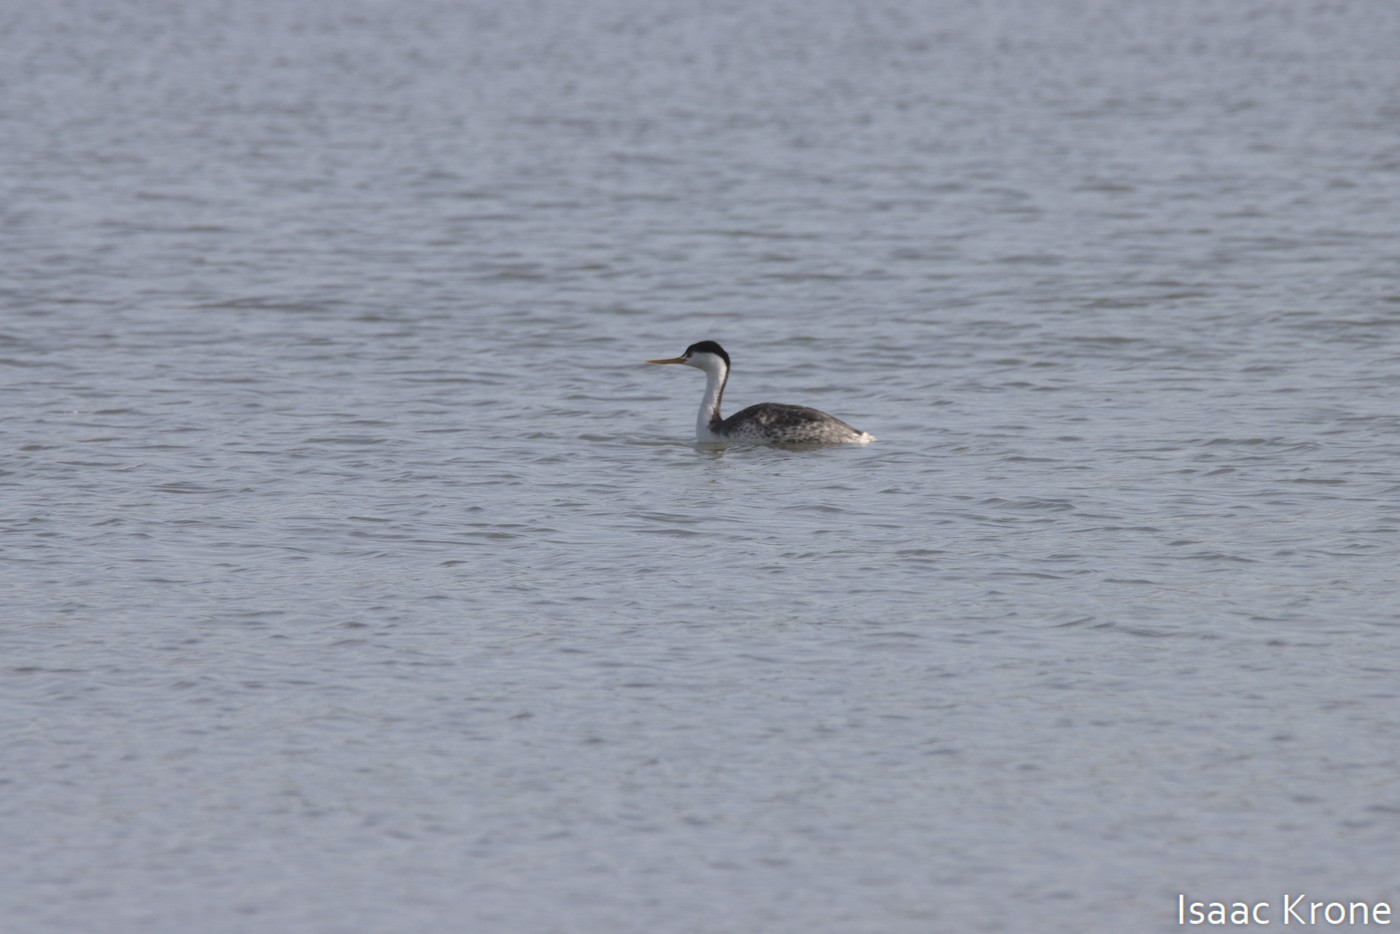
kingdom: Animalia
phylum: Chordata
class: Aves
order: Podicipediformes
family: Podicipedidae
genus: Aechmophorus
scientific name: Aechmophorus clarkii
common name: Clark's grebe
